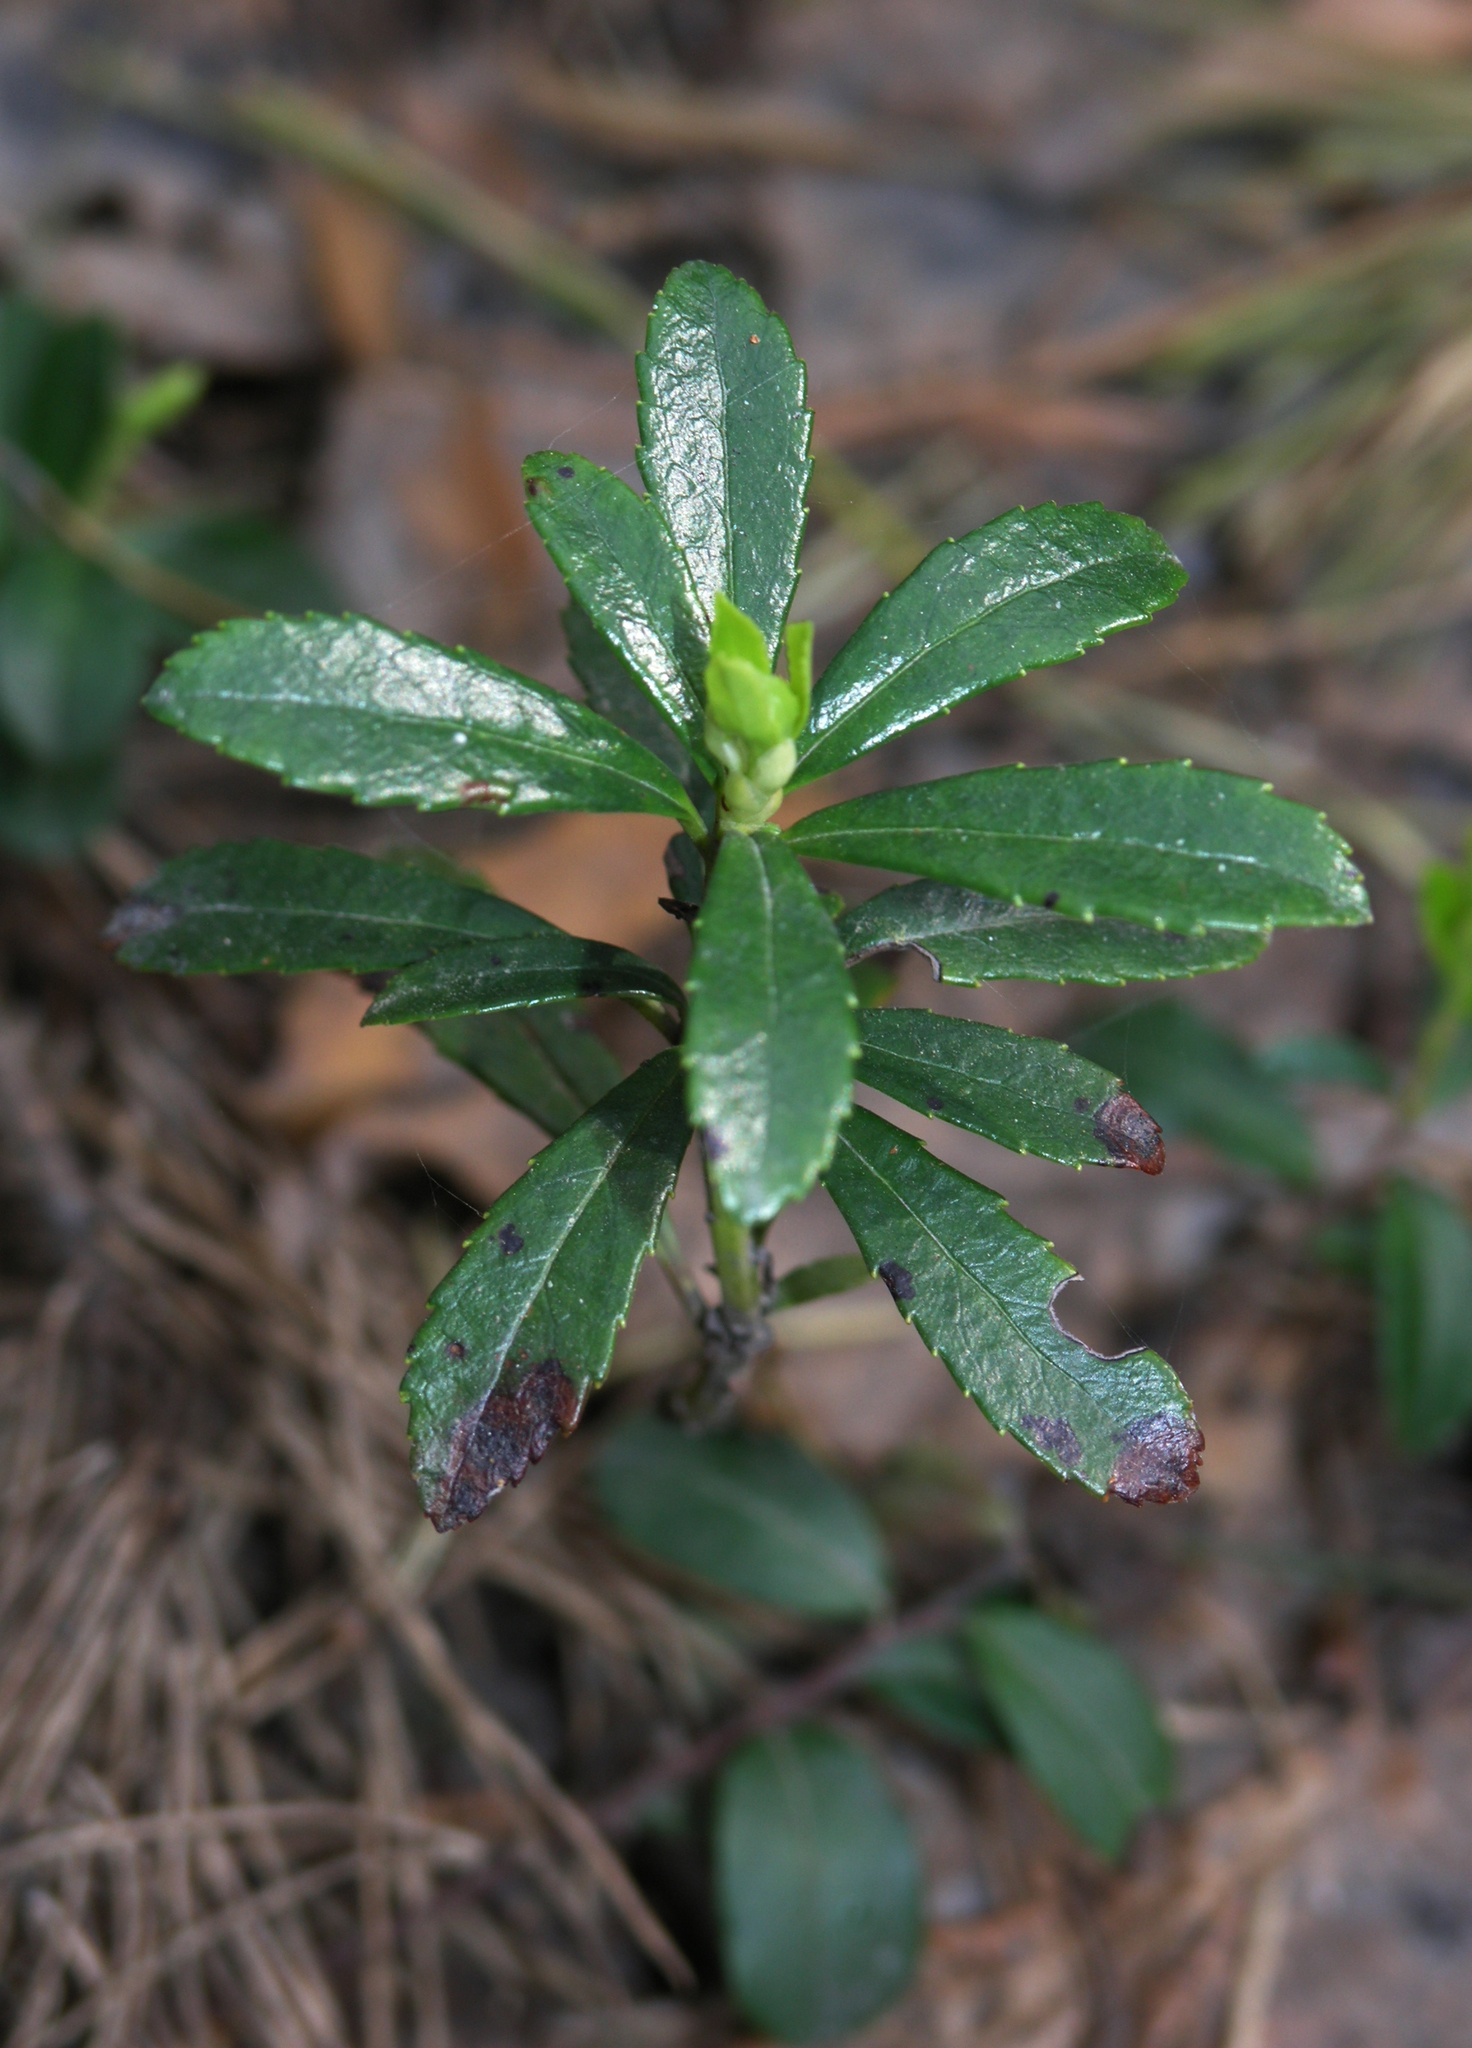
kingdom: Plantae
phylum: Tracheophyta
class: Magnoliopsida
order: Ericales
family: Ericaceae
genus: Chimaphila
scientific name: Chimaphila umbellata
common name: Pipsissewa
